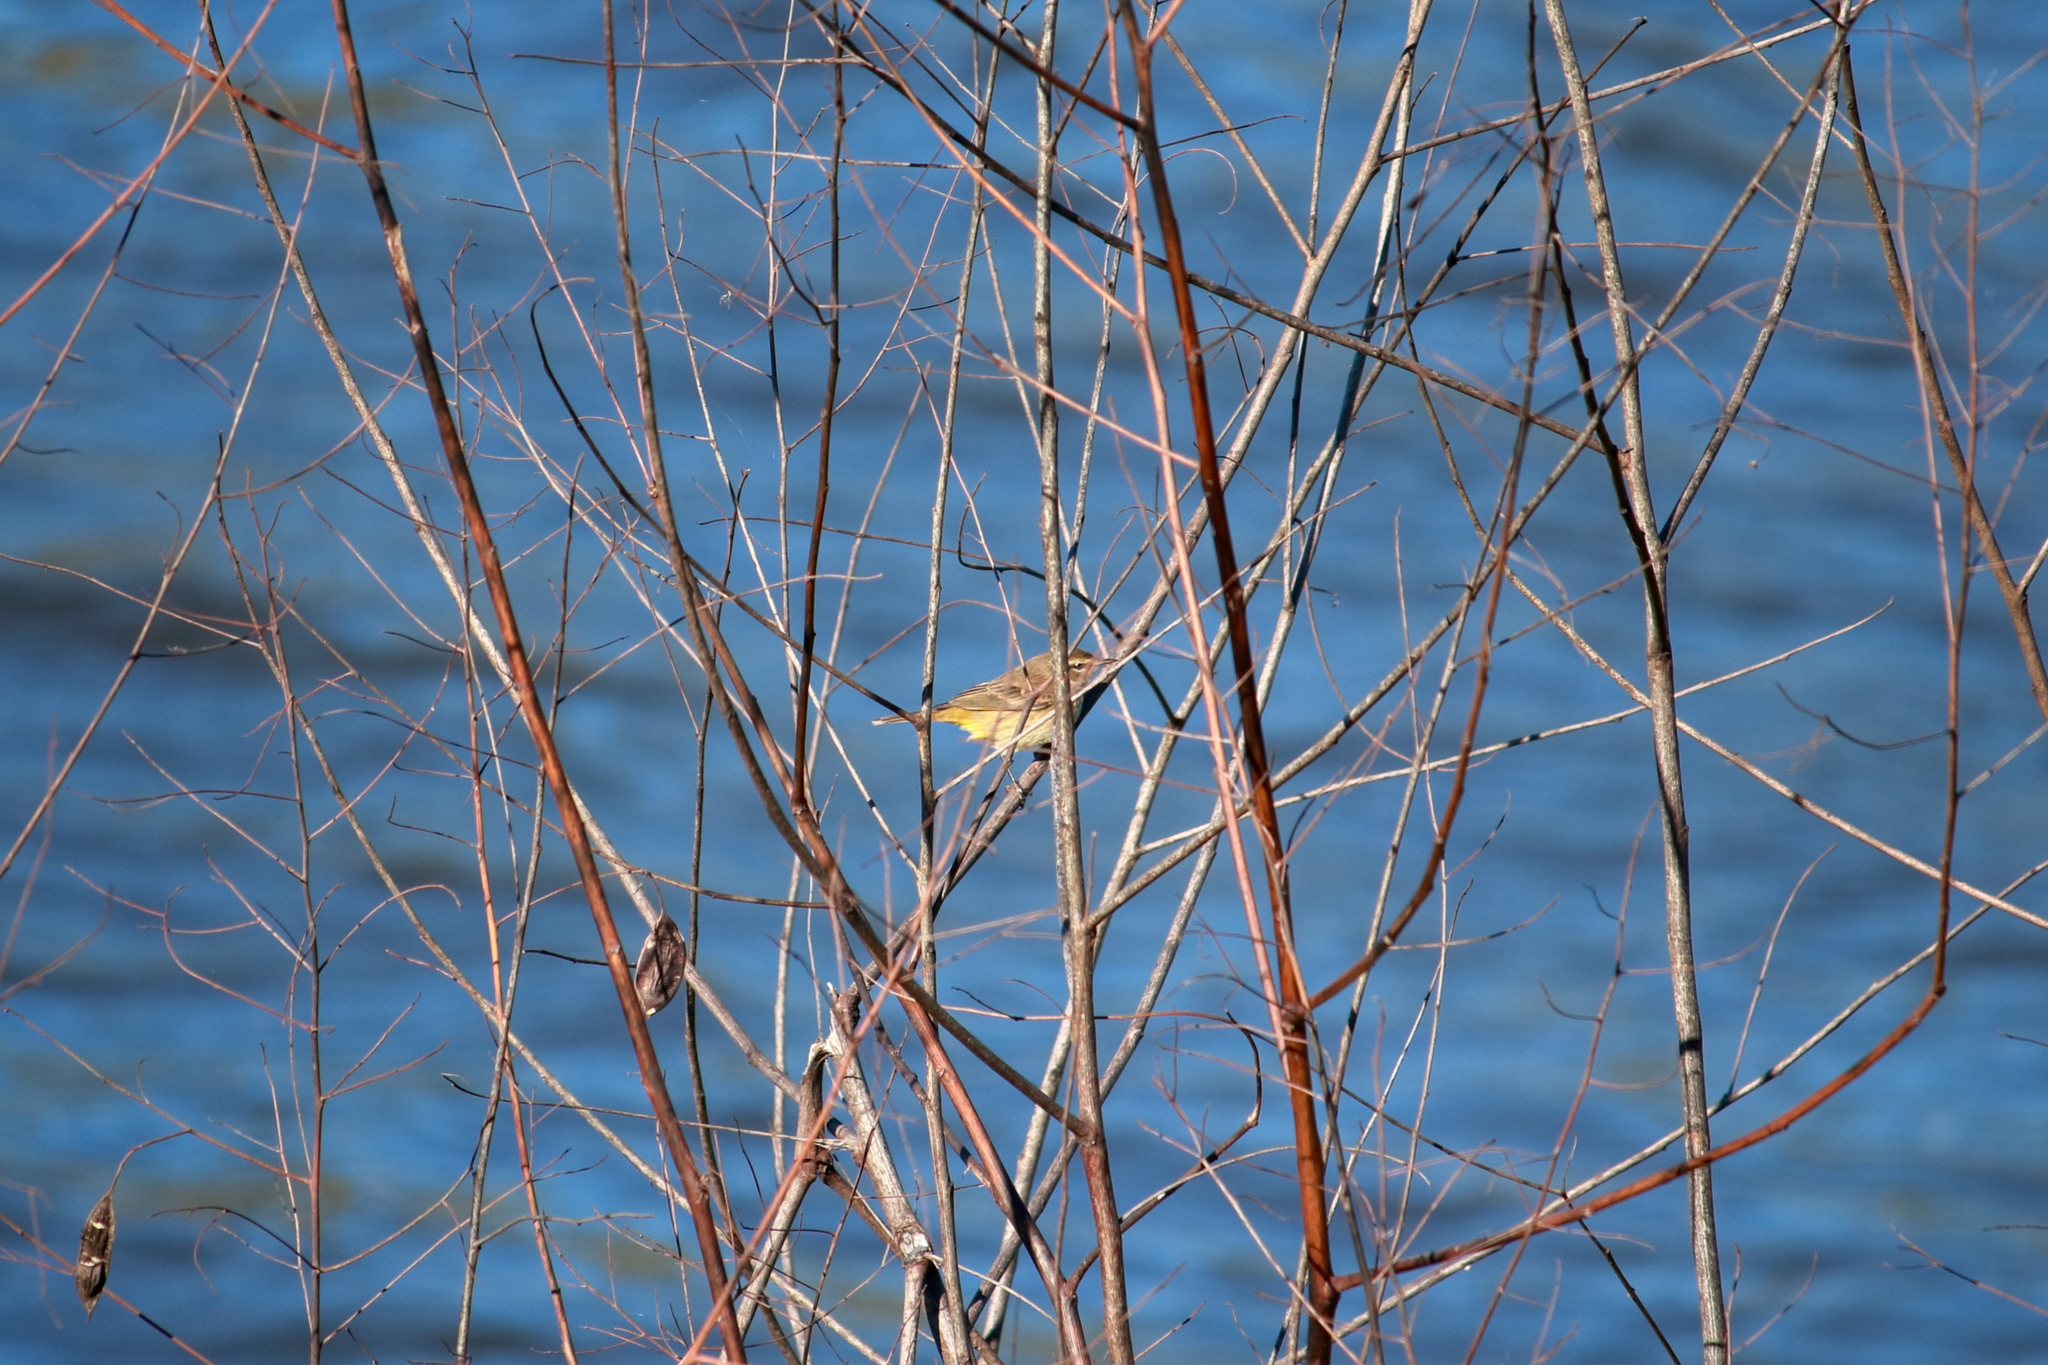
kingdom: Animalia
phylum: Chordata
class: Aves
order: Passeriformes
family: Parulidae
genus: Setophaga
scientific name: Setophaga palmarum
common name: Palm warbler
